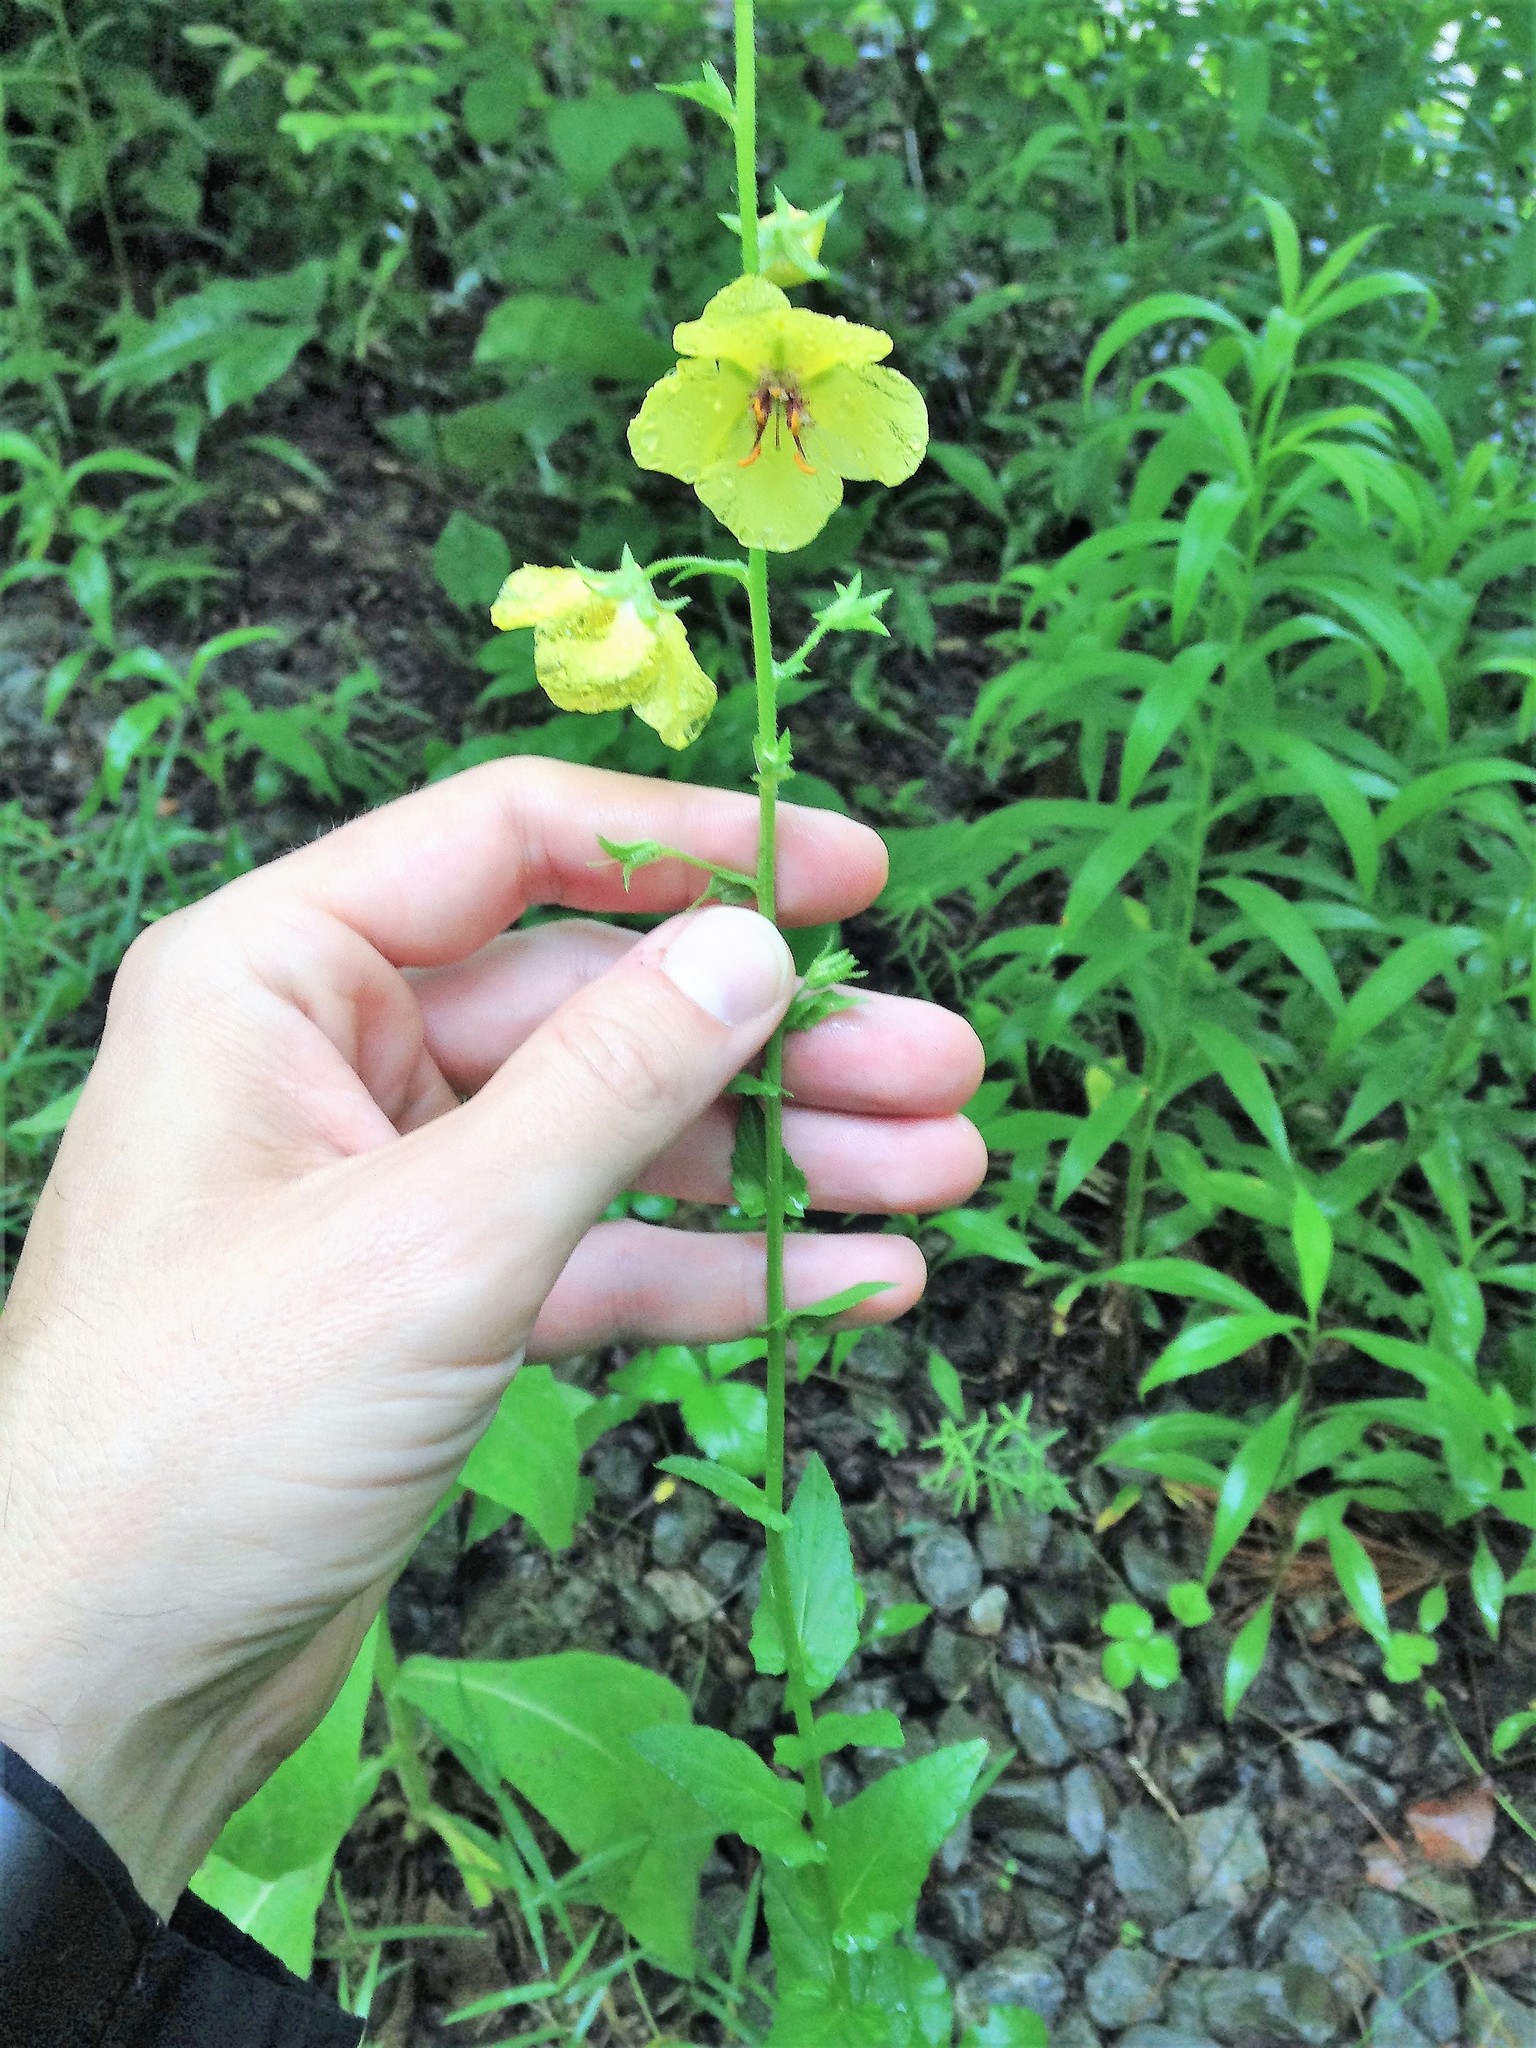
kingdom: Plantae
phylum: Tracheophyta
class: Magnoliopsida
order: Lamiales
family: Scrophulariaceae
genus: Verbascum
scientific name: Verbascum blattaria
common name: Moth mullein
